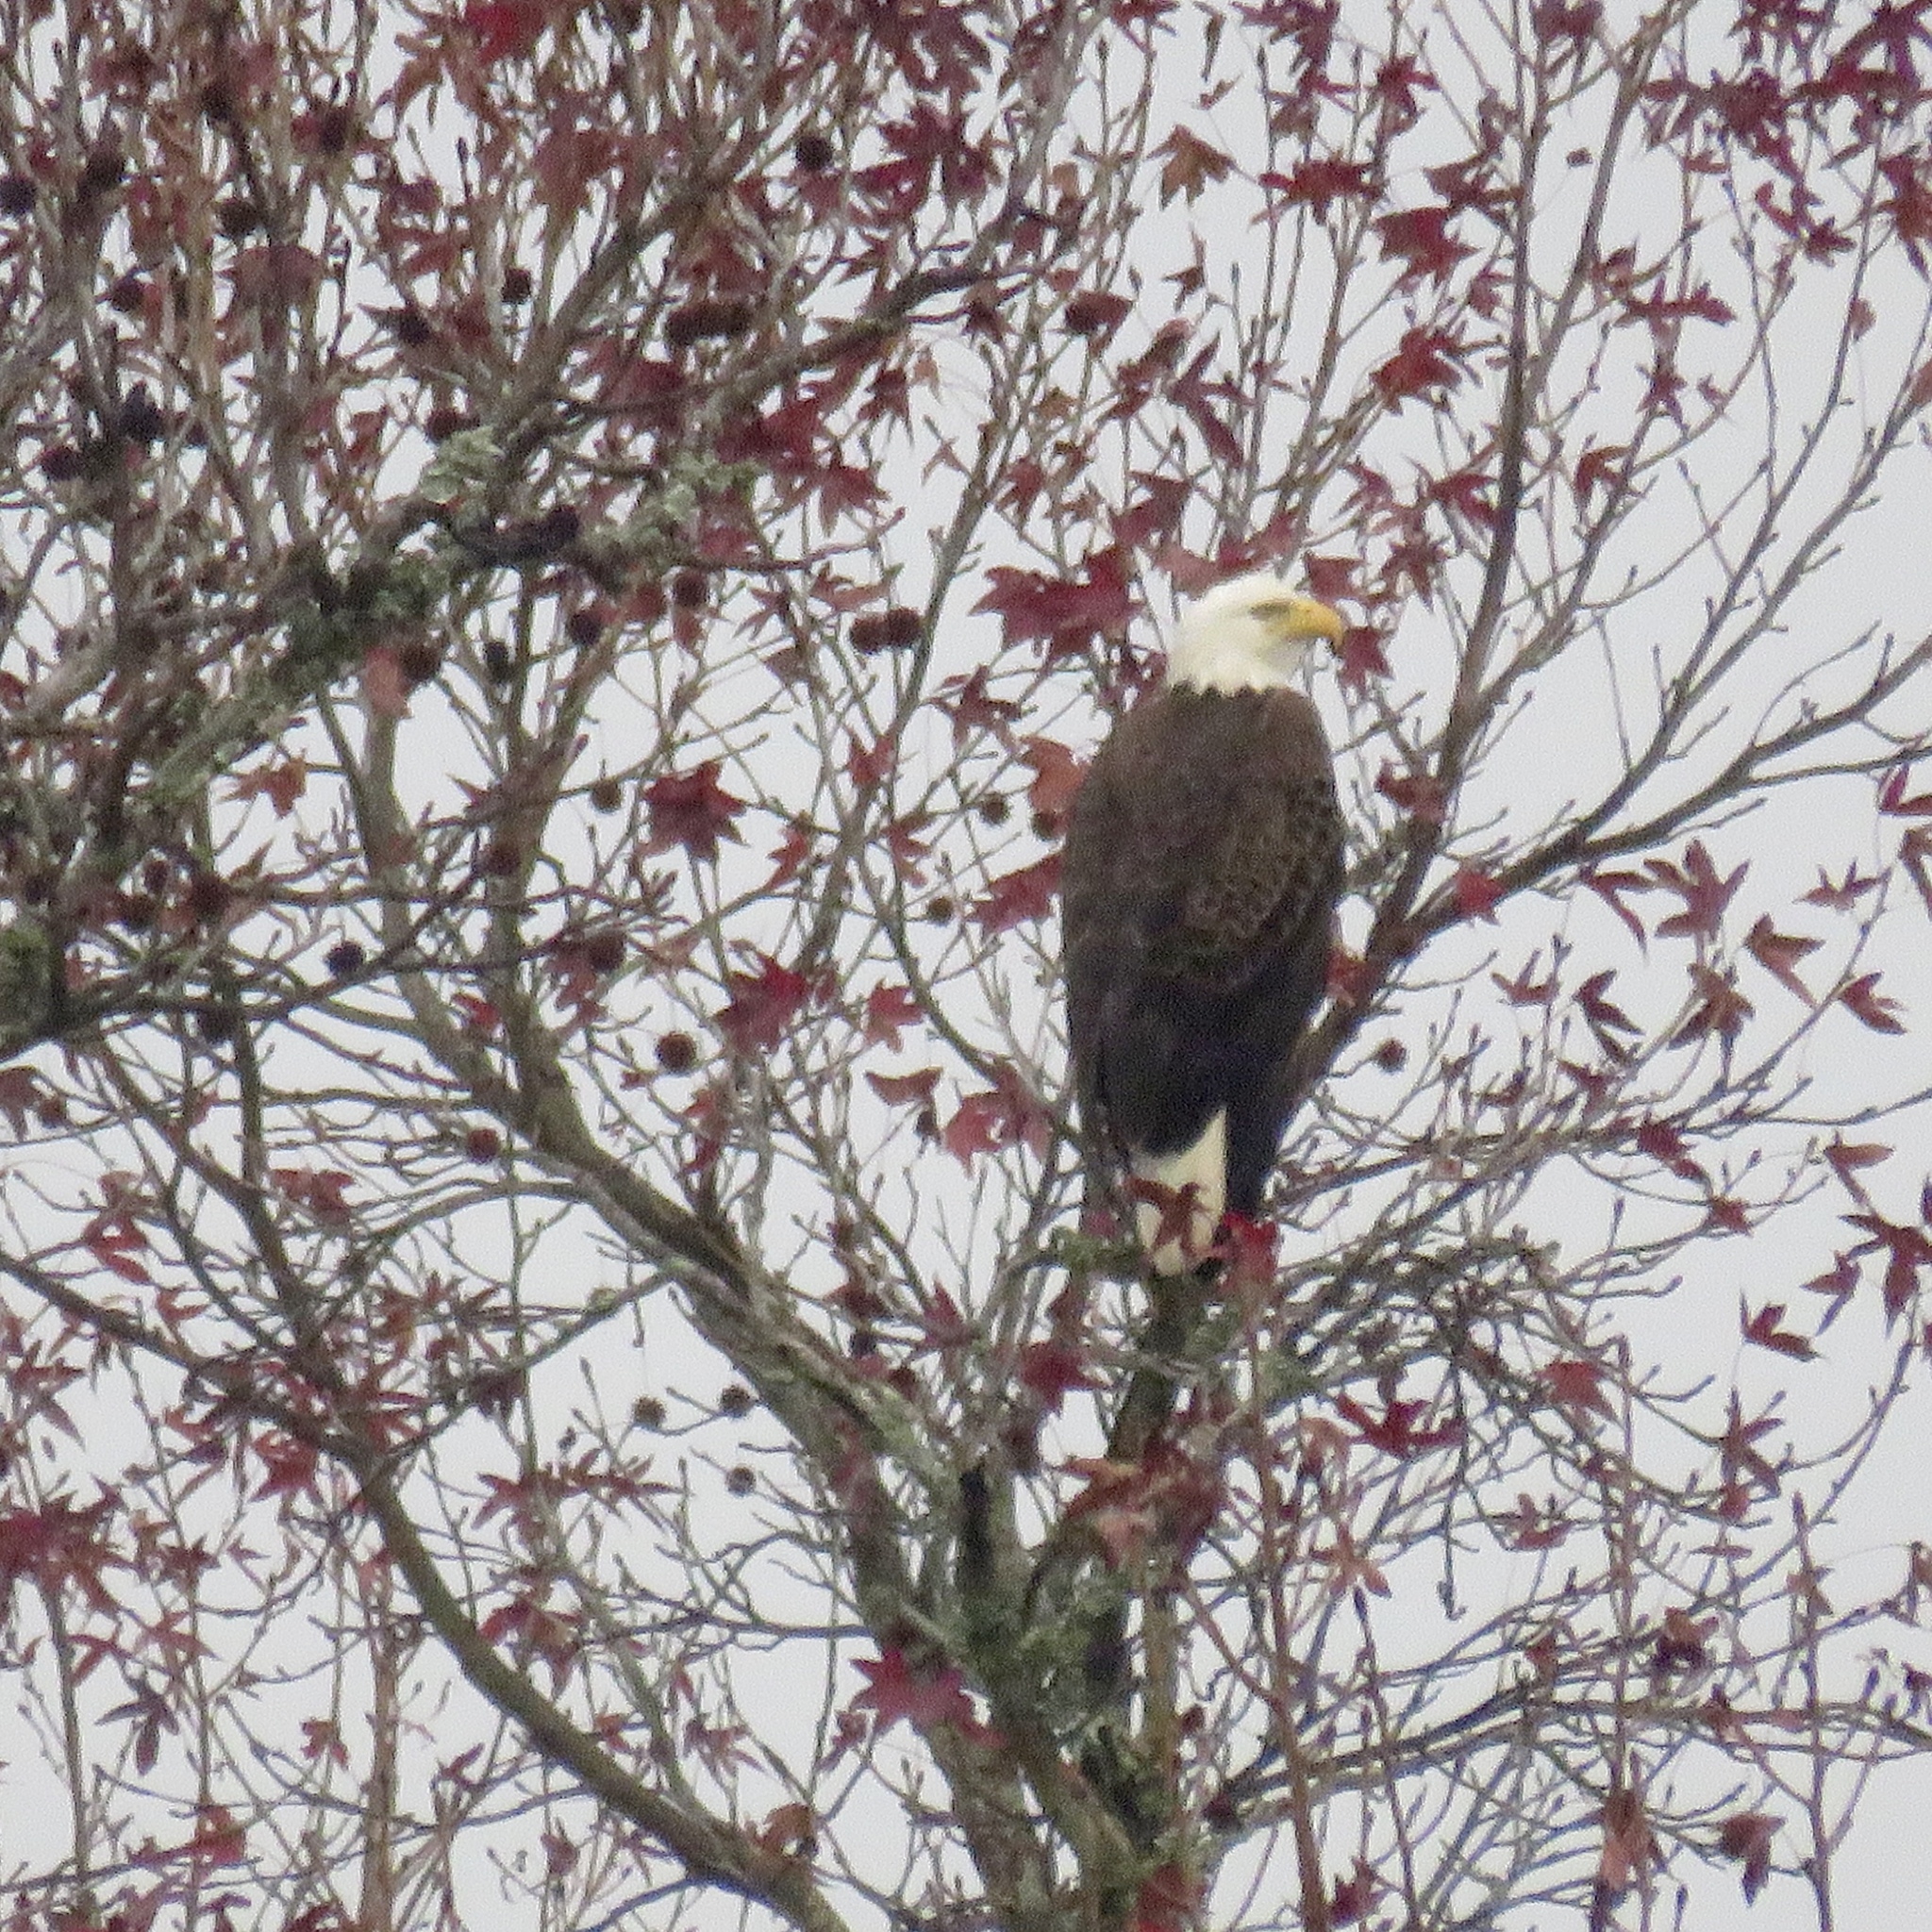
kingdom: Animalia
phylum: Chordata
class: Aves
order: Accipitriformes
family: Accipitridae
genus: Haliaeetus
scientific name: Haliaeetus leucocephalus
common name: Bald eagle
